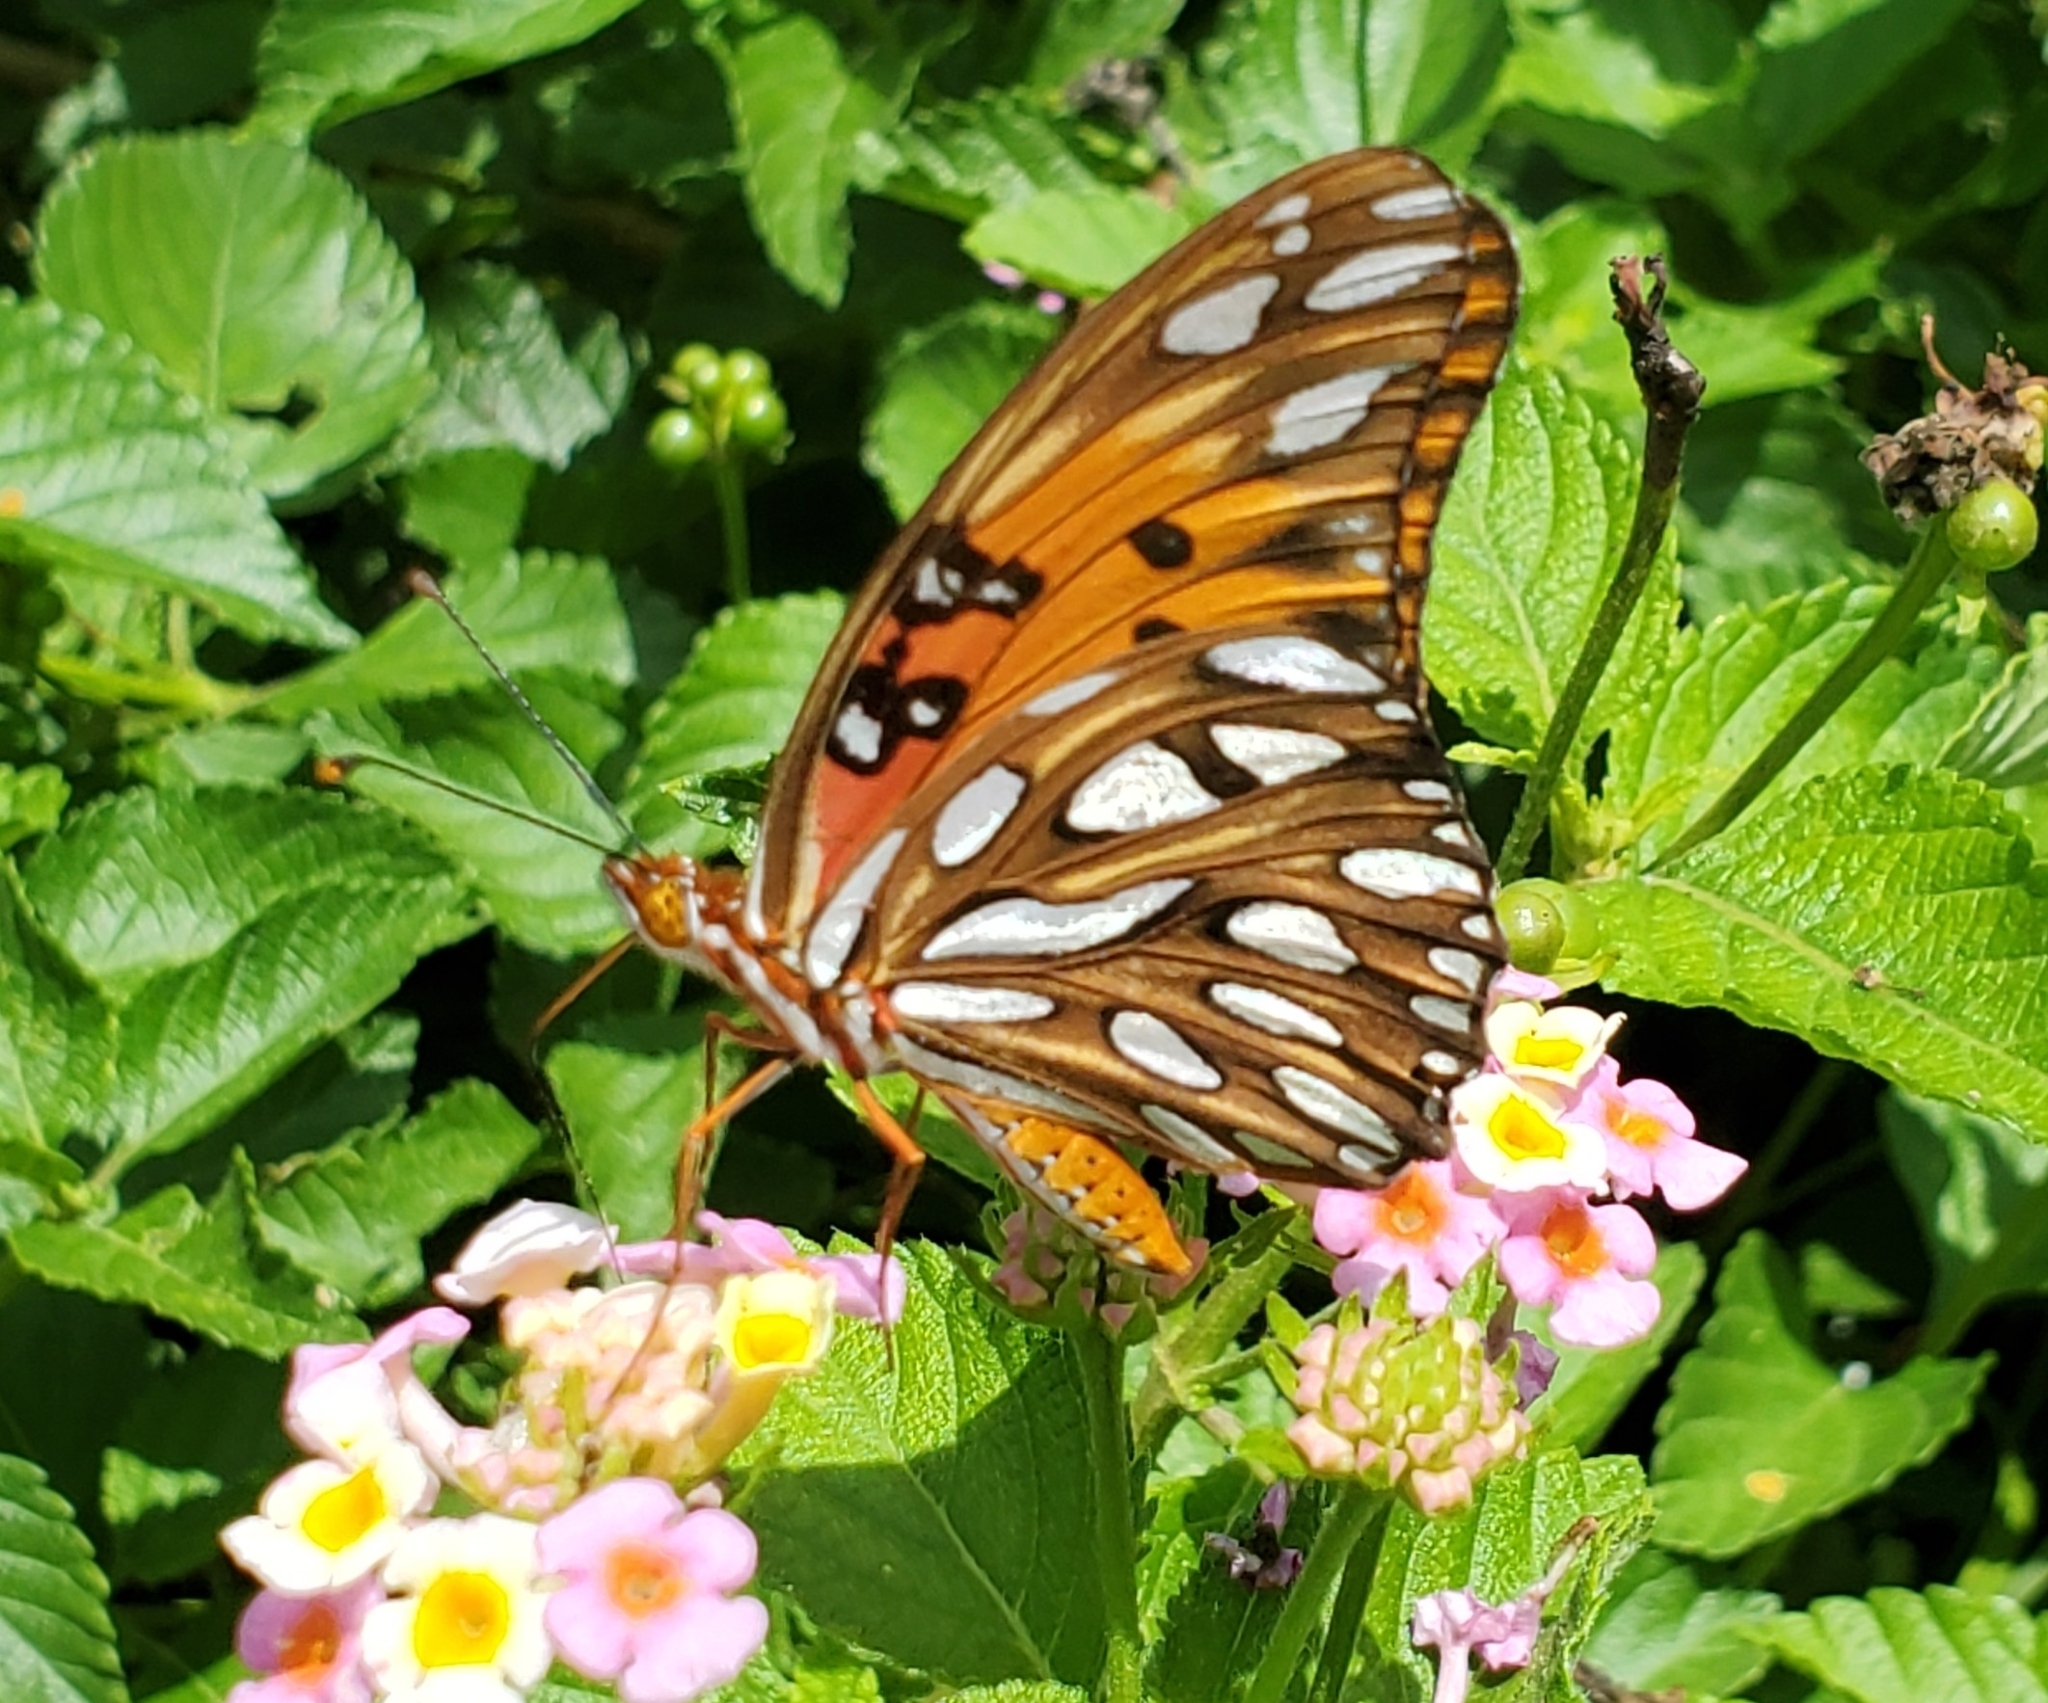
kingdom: Animalia
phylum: Arthropoda
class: Insecta
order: Lepidoptera
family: Nymphalidae
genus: Dione
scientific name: Dione vanillae
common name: Gulf fritillary
